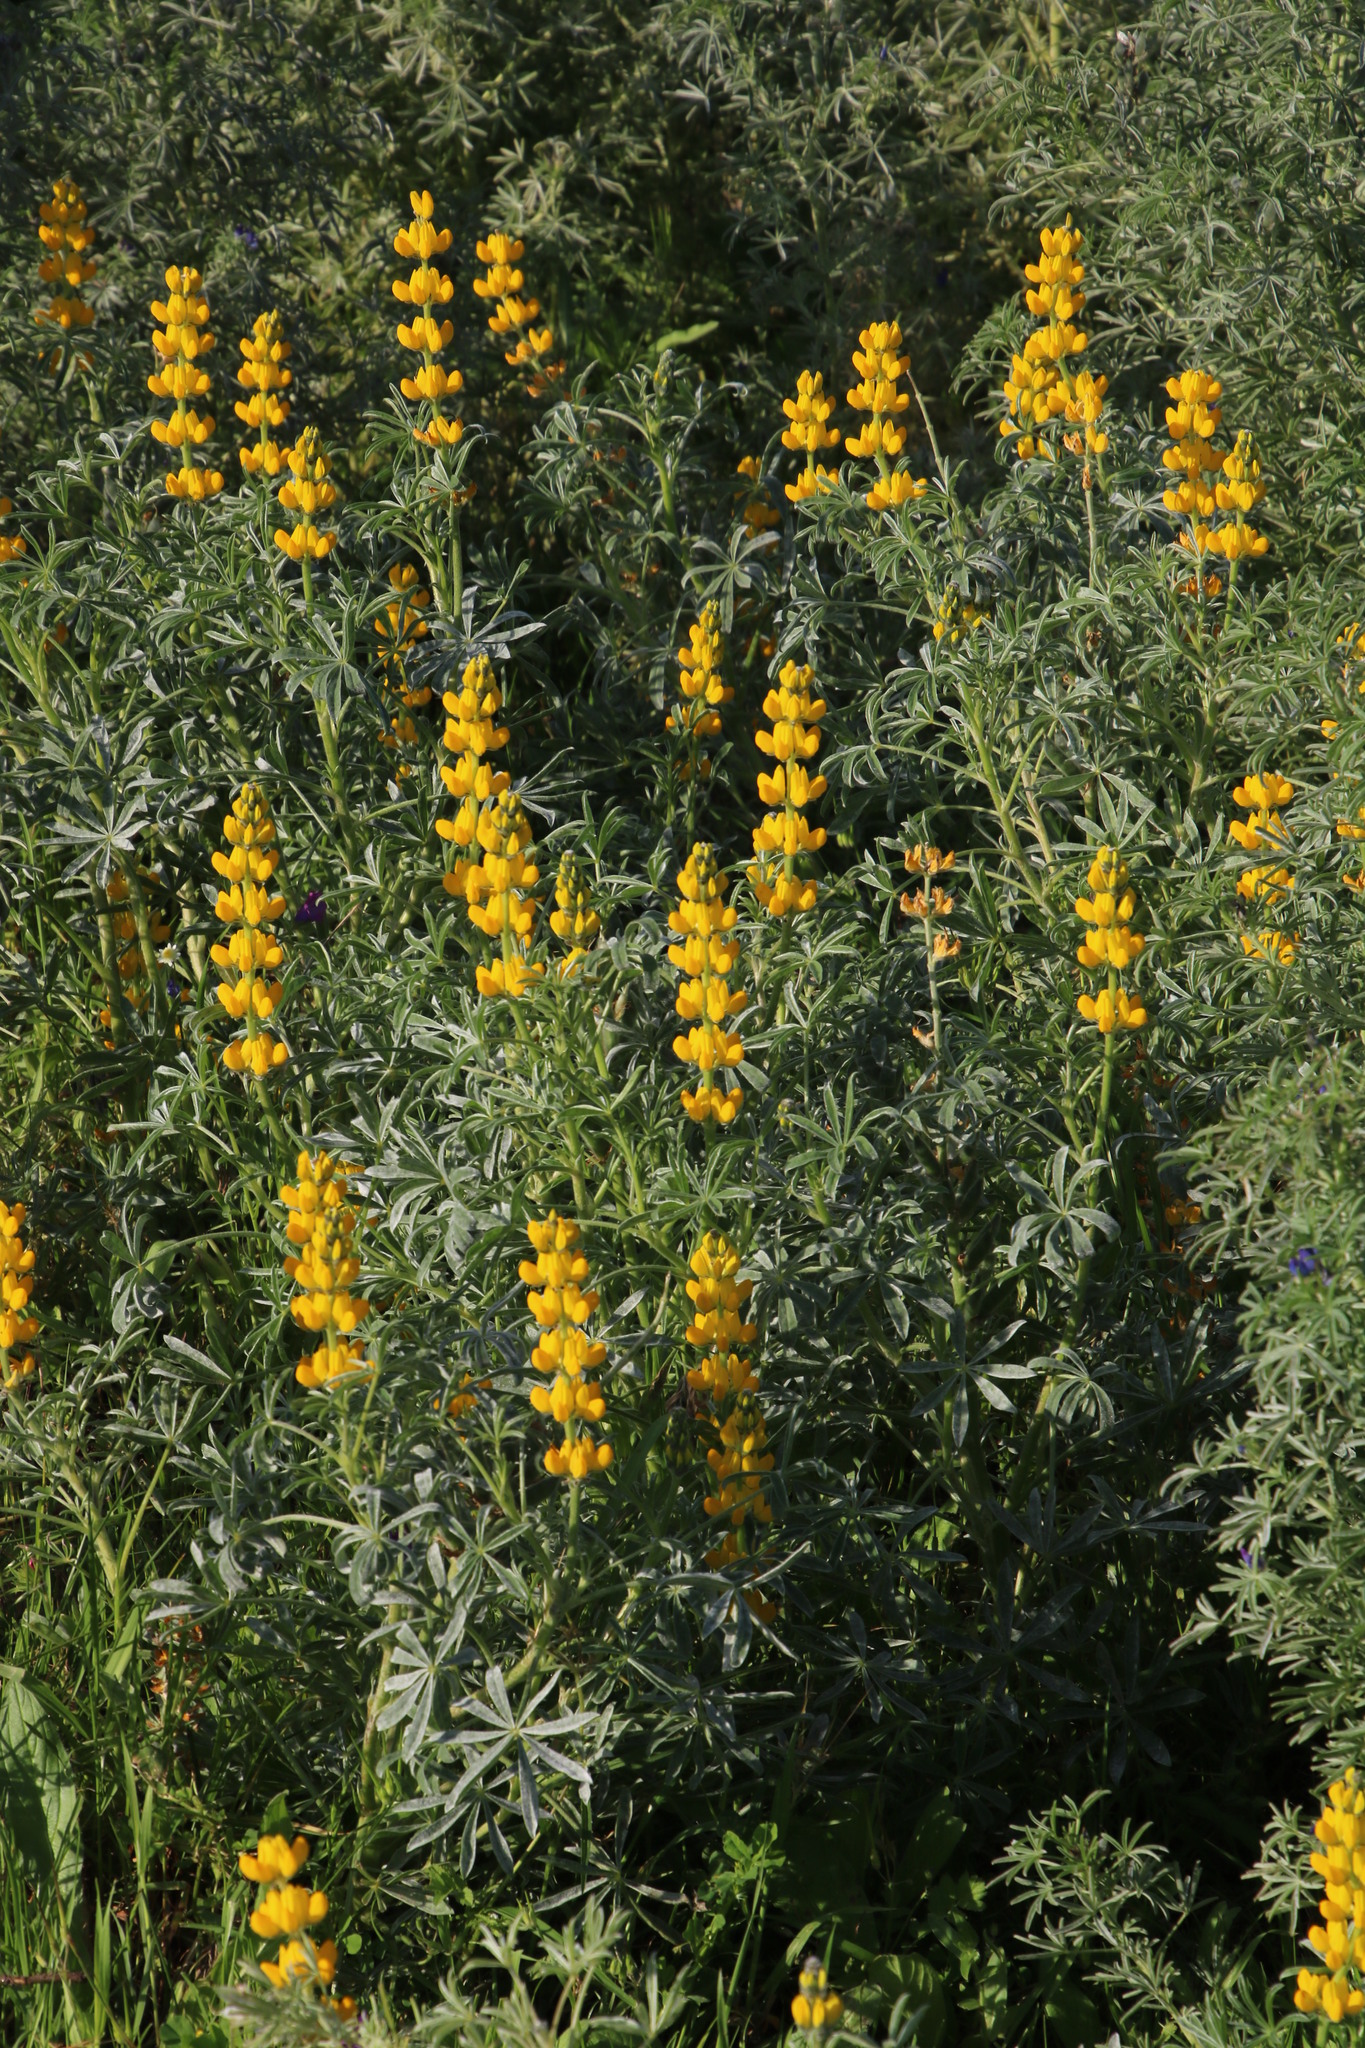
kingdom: Plantae
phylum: Tracheophyta
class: Magnoliopsida
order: Fabales
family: Fabaceae
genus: Lupinus
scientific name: Lupinus luteus
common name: European yellow lupine
